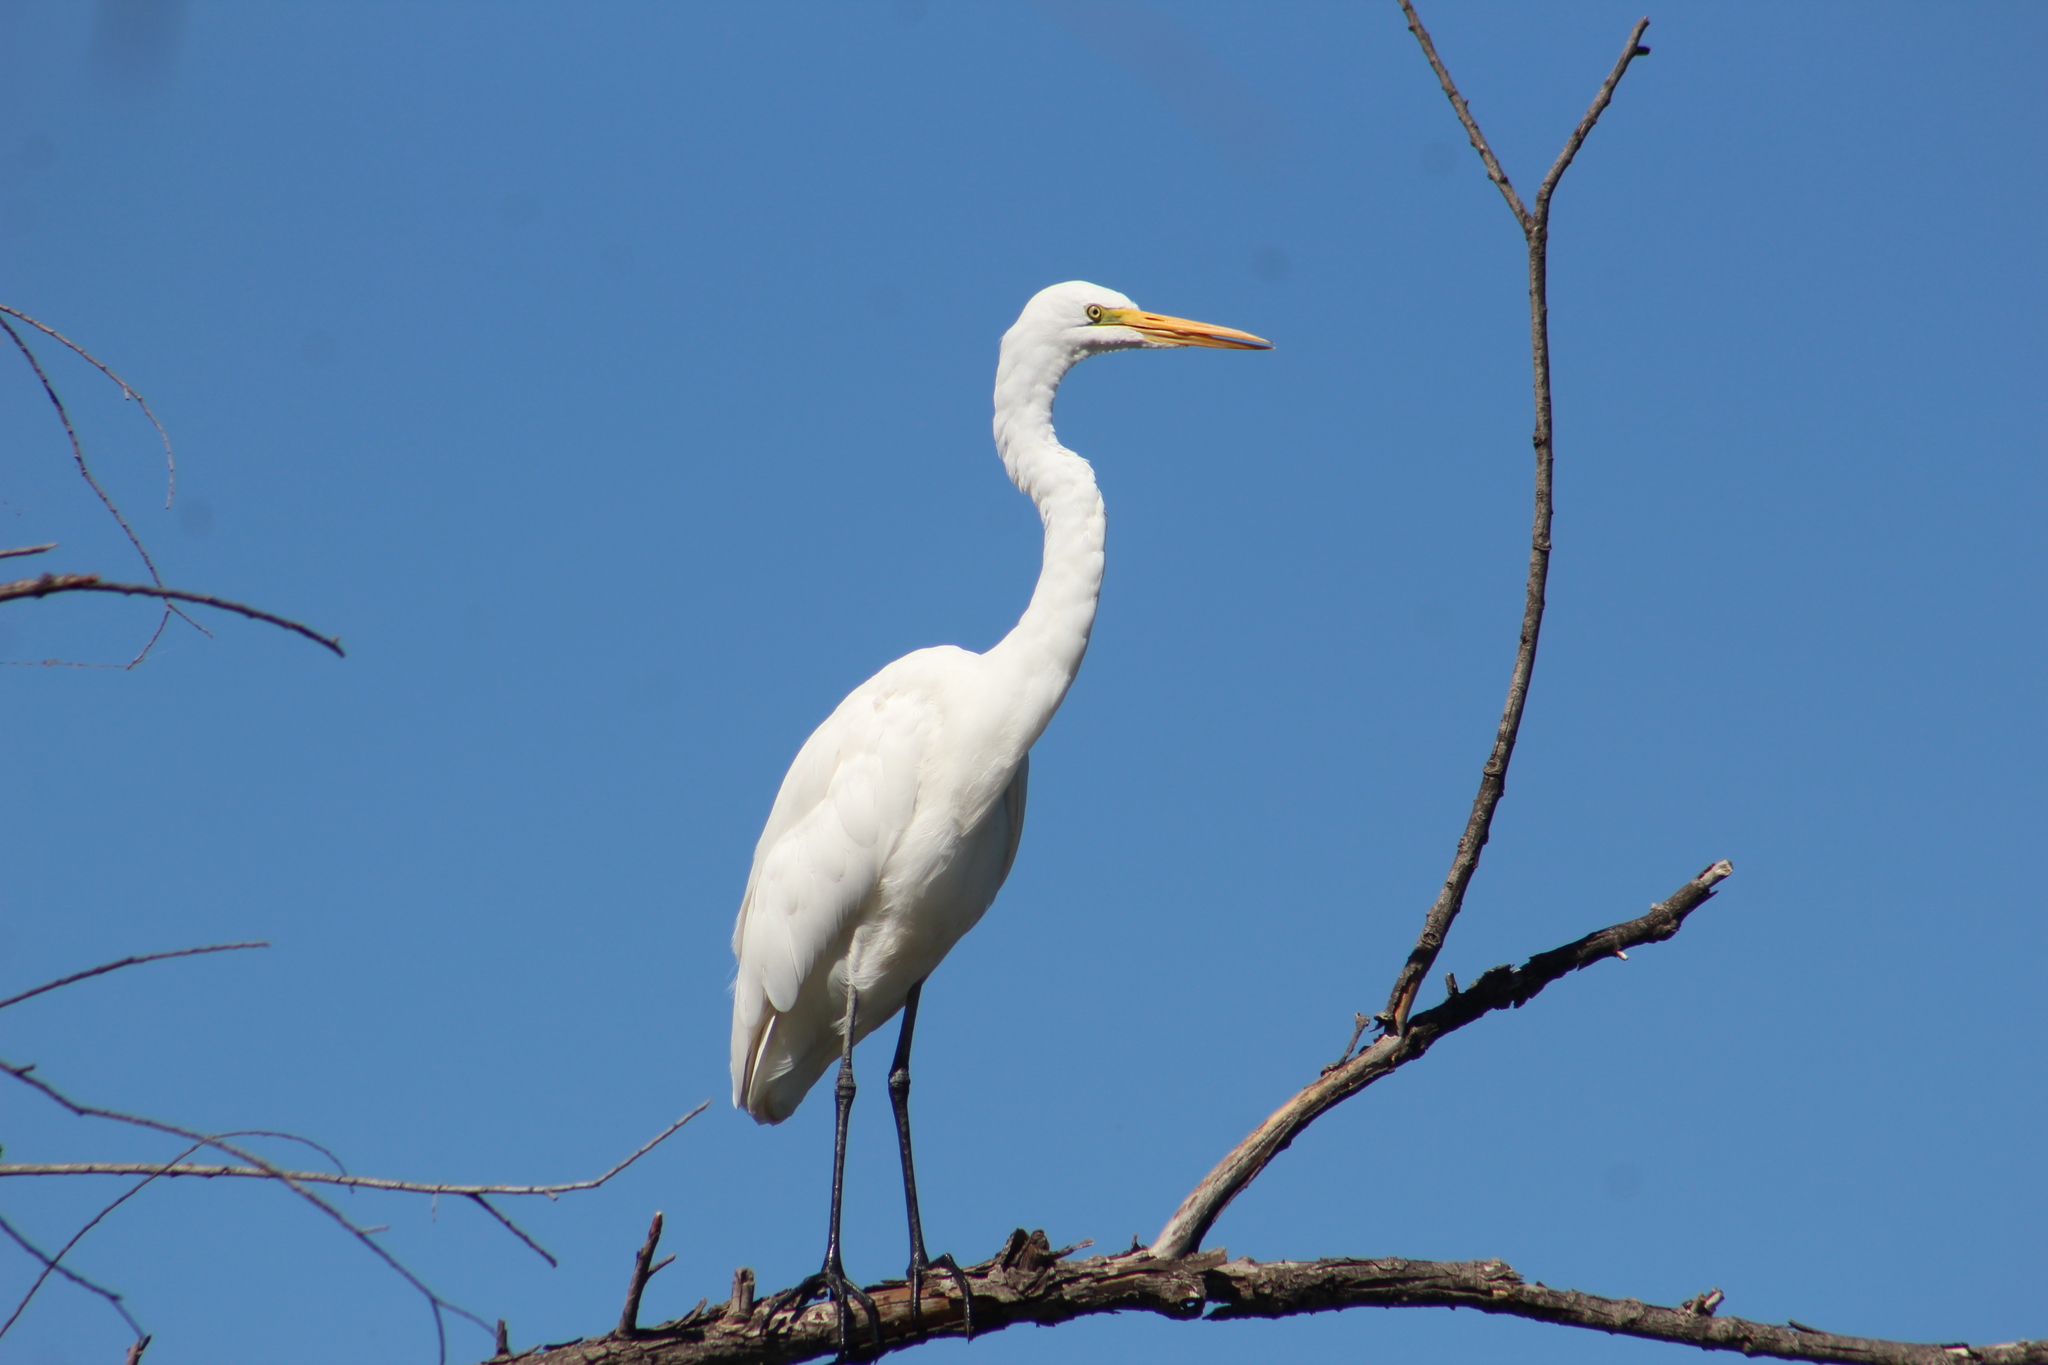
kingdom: Animalia
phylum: Chordata
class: Aves
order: Pelecaniformes
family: Ardeidae
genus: Ardea
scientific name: Ardea alba
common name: Great egret
